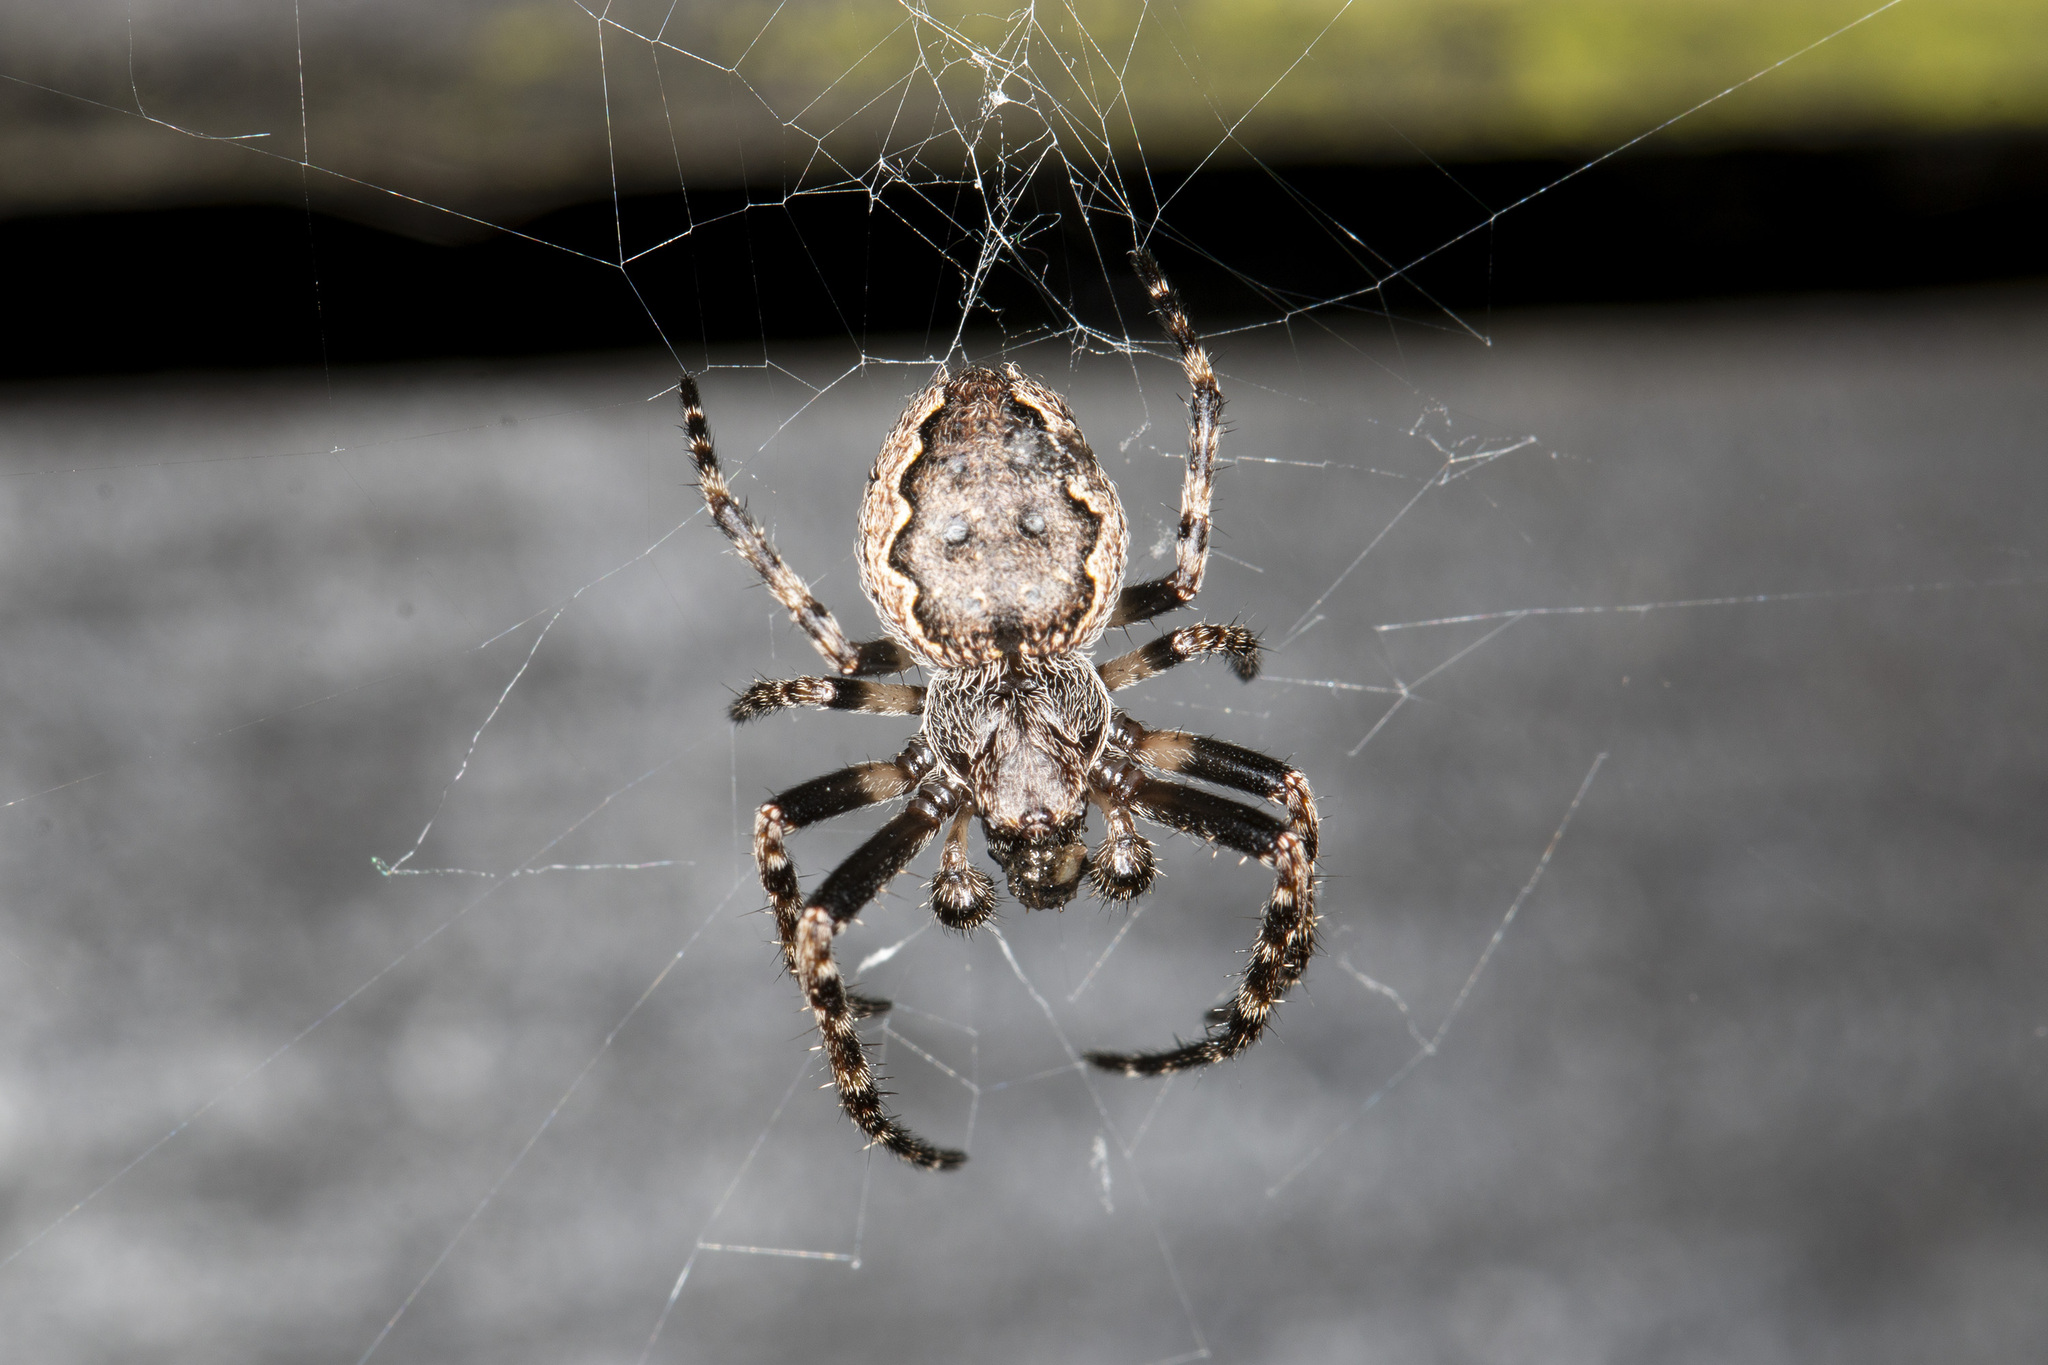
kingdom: Animalia
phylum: Arthropoda
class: Arachnida
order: Araneae
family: Araneidae
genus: Nuctenea
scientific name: Nuctenea umbratica
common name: Toad spider
